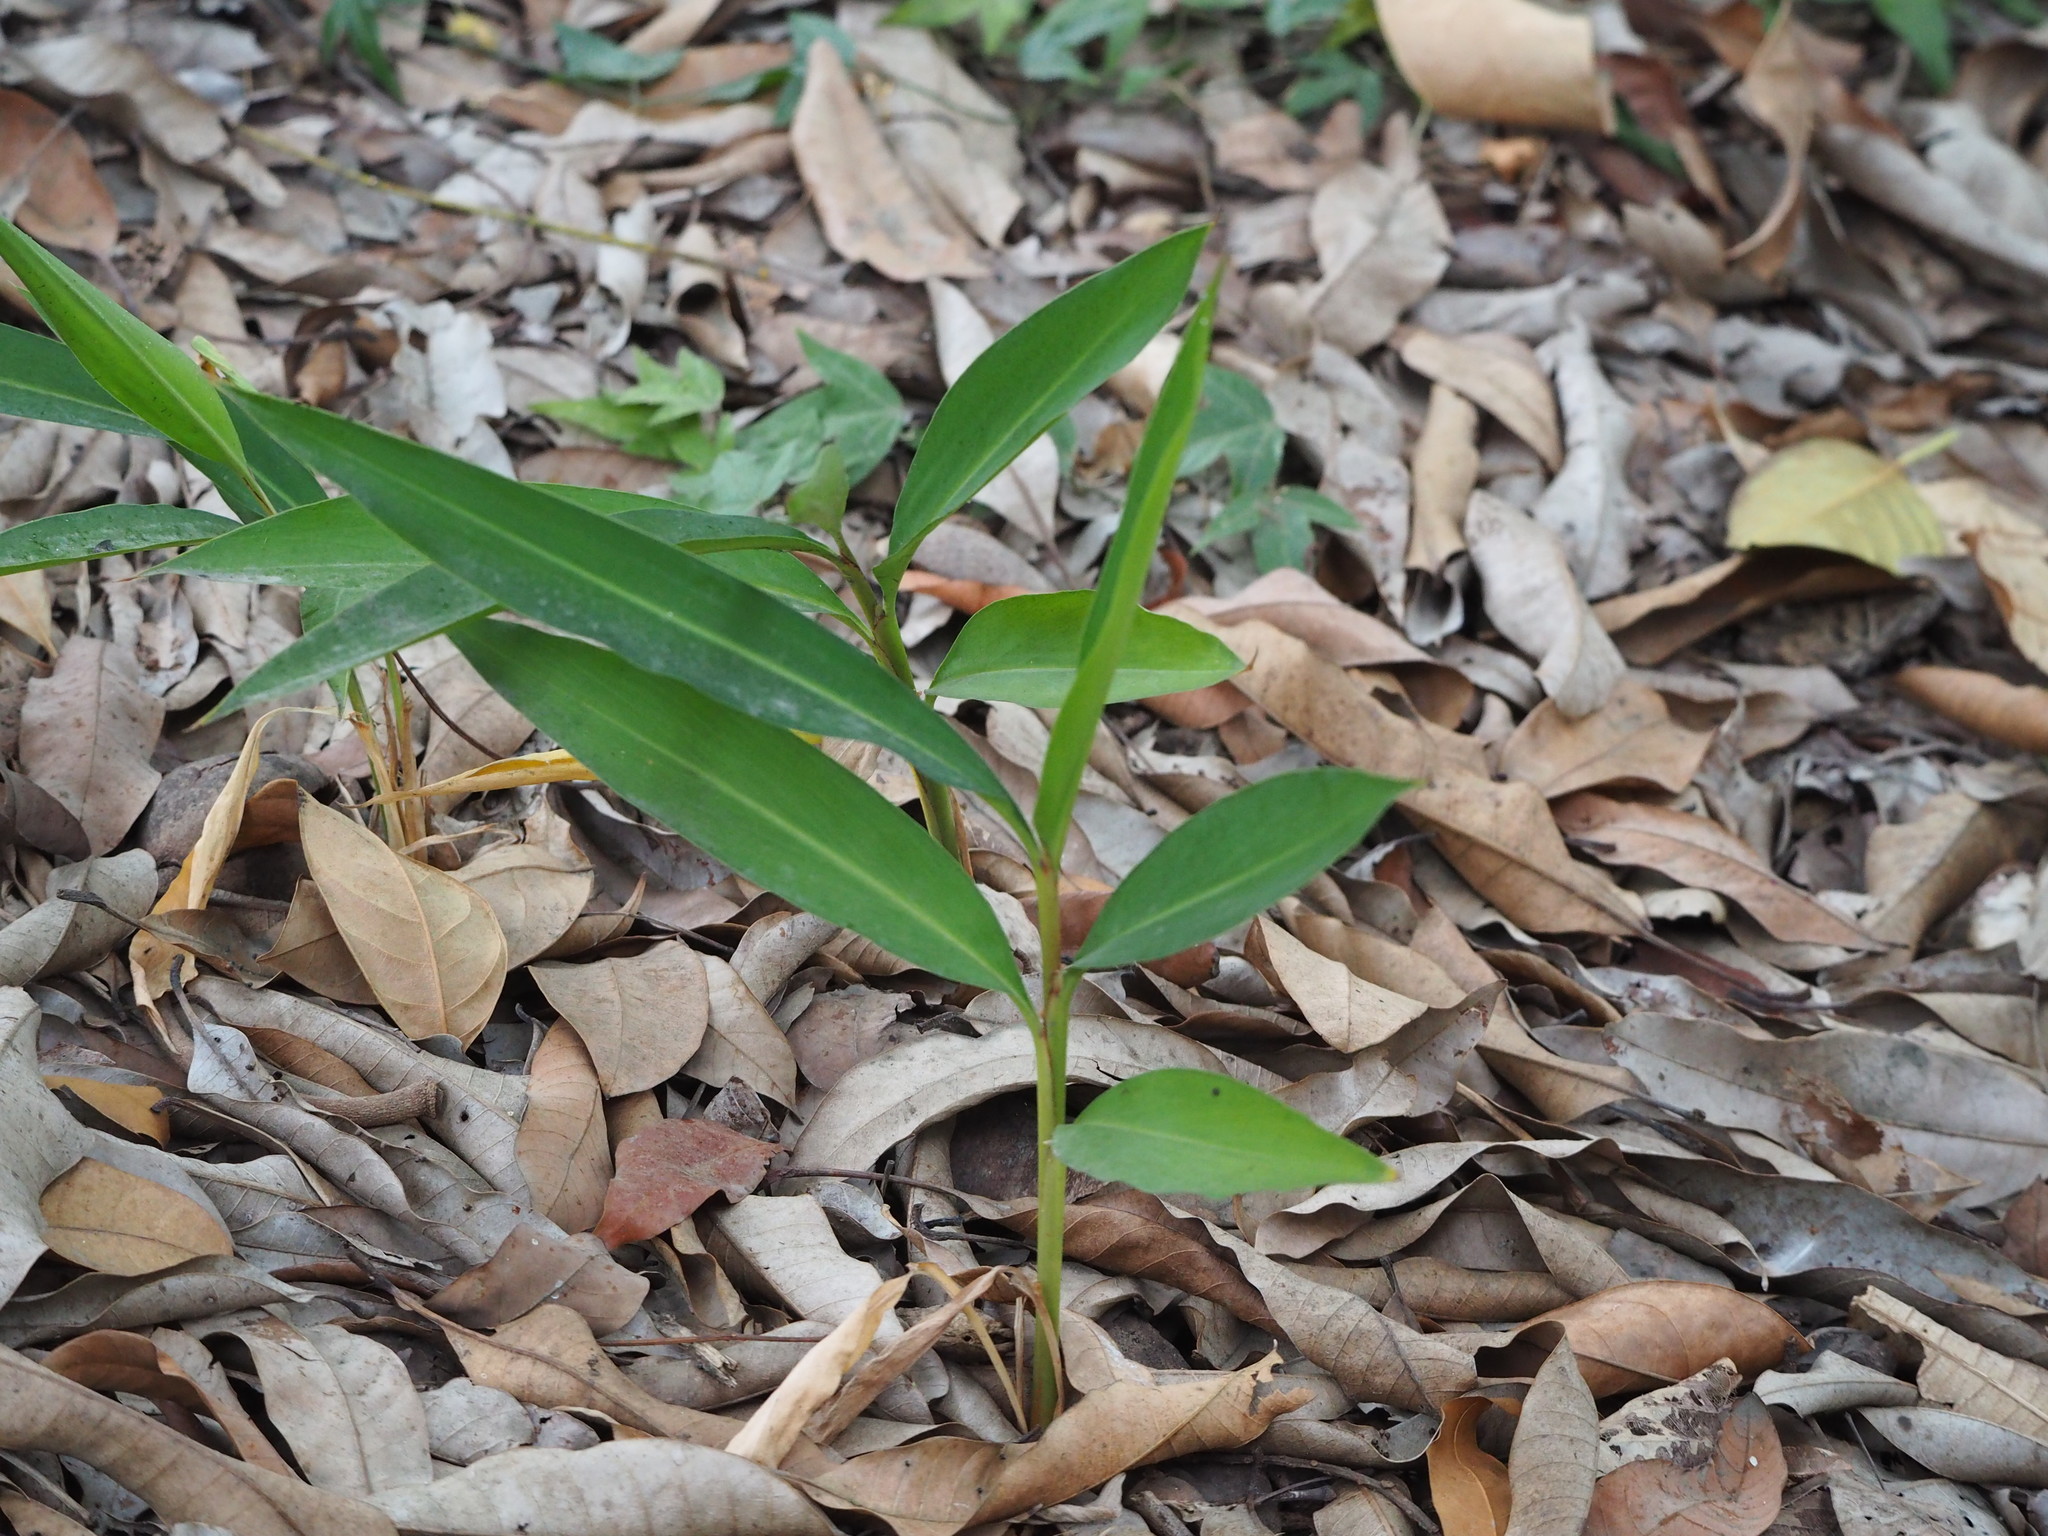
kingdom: Plantae
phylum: Tracheophyta
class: Liliopsida
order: Zingiberales
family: Zingiberaceae
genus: Alpinia
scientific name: Alpinia zerumbet
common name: Shellplant
